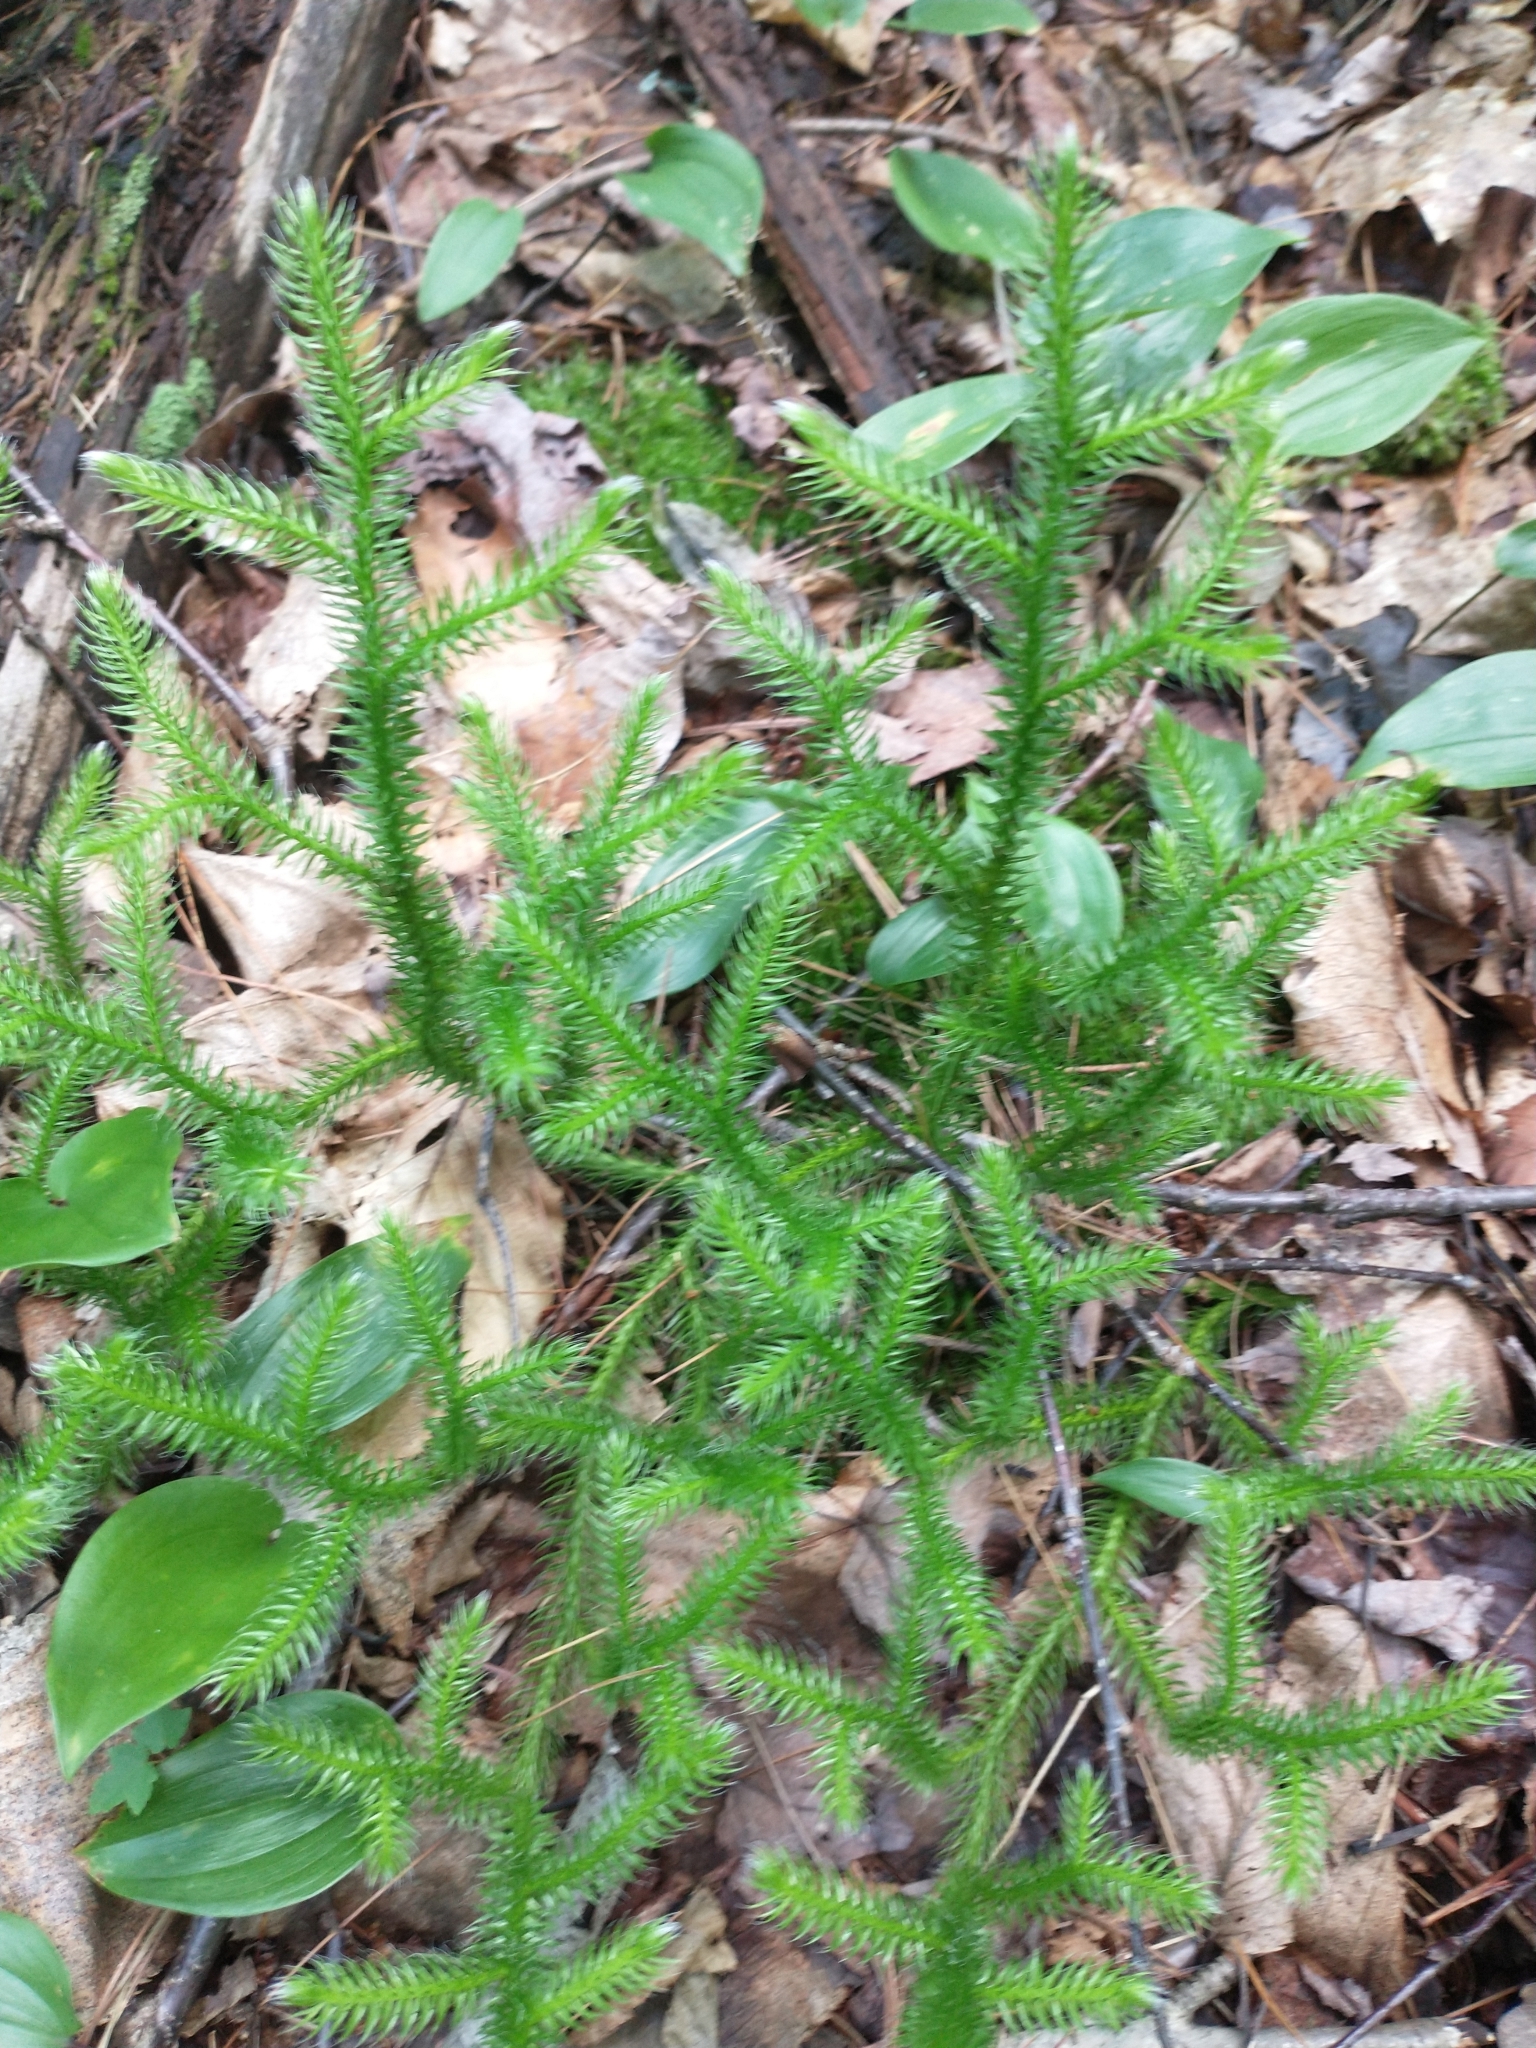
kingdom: Plantae
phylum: Tracheophyta
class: Lycopodiopsida
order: Lycopodiales
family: Lycopodiaceae
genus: Lycopodium
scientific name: Lycopodium clavatum
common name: Stag's-horn clubmoss
